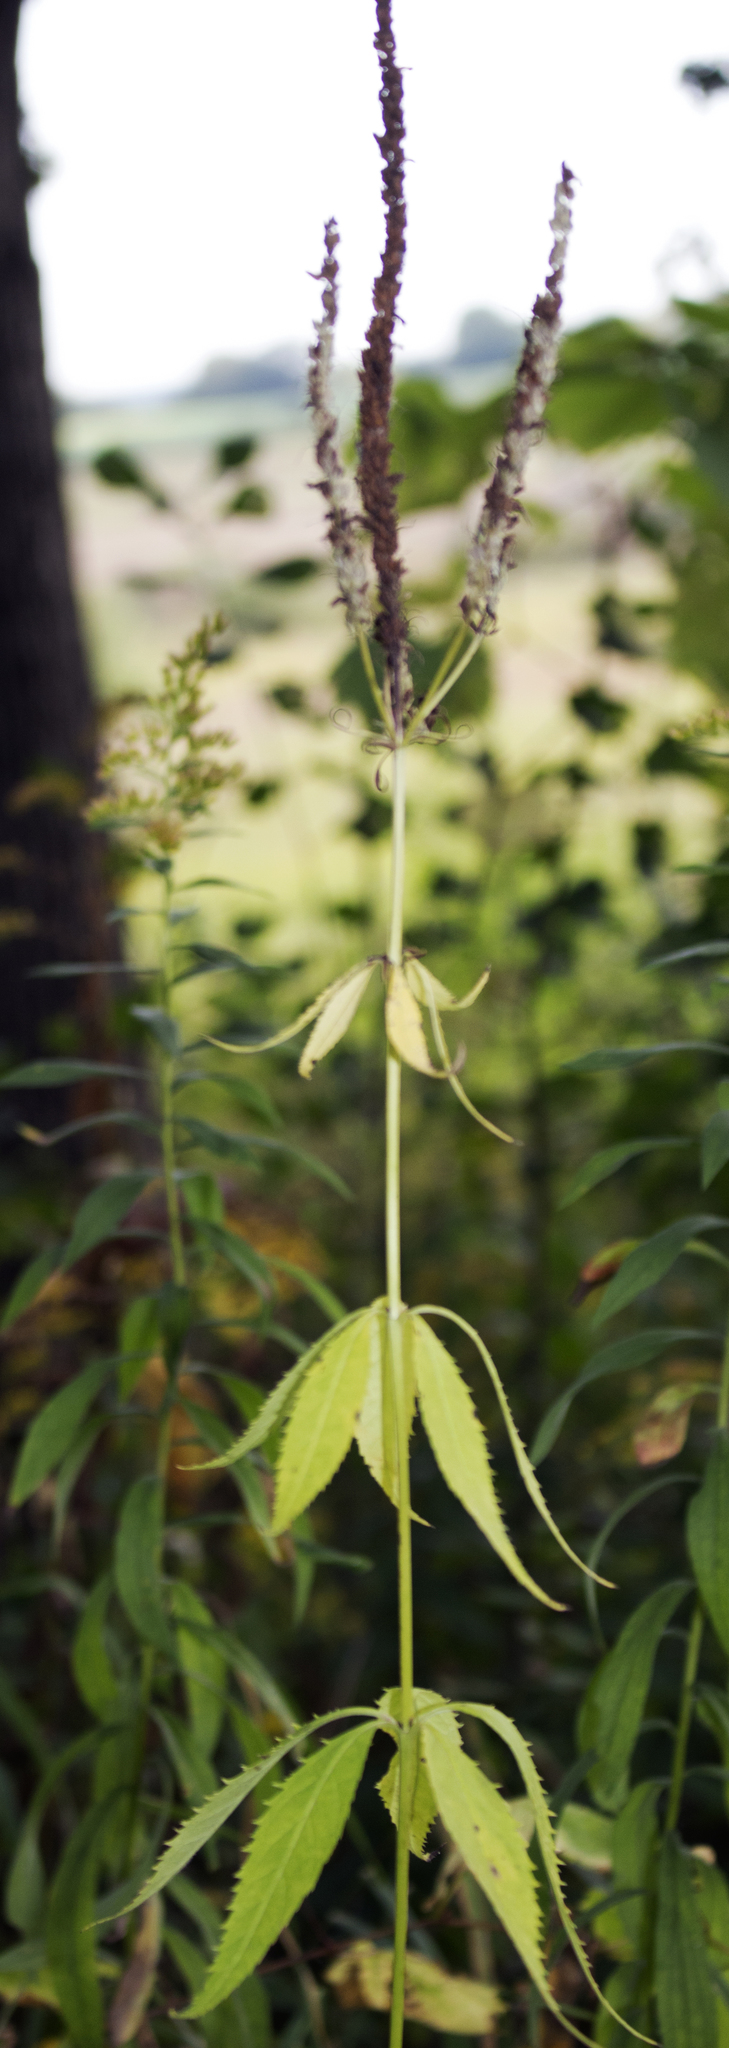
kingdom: Plantae
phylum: Tracheophyta
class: Magnoliopsida
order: Lamiales
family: Plantaginaceae
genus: Veronicastrum
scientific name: Veronicastrum virginicum
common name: Blackroot
